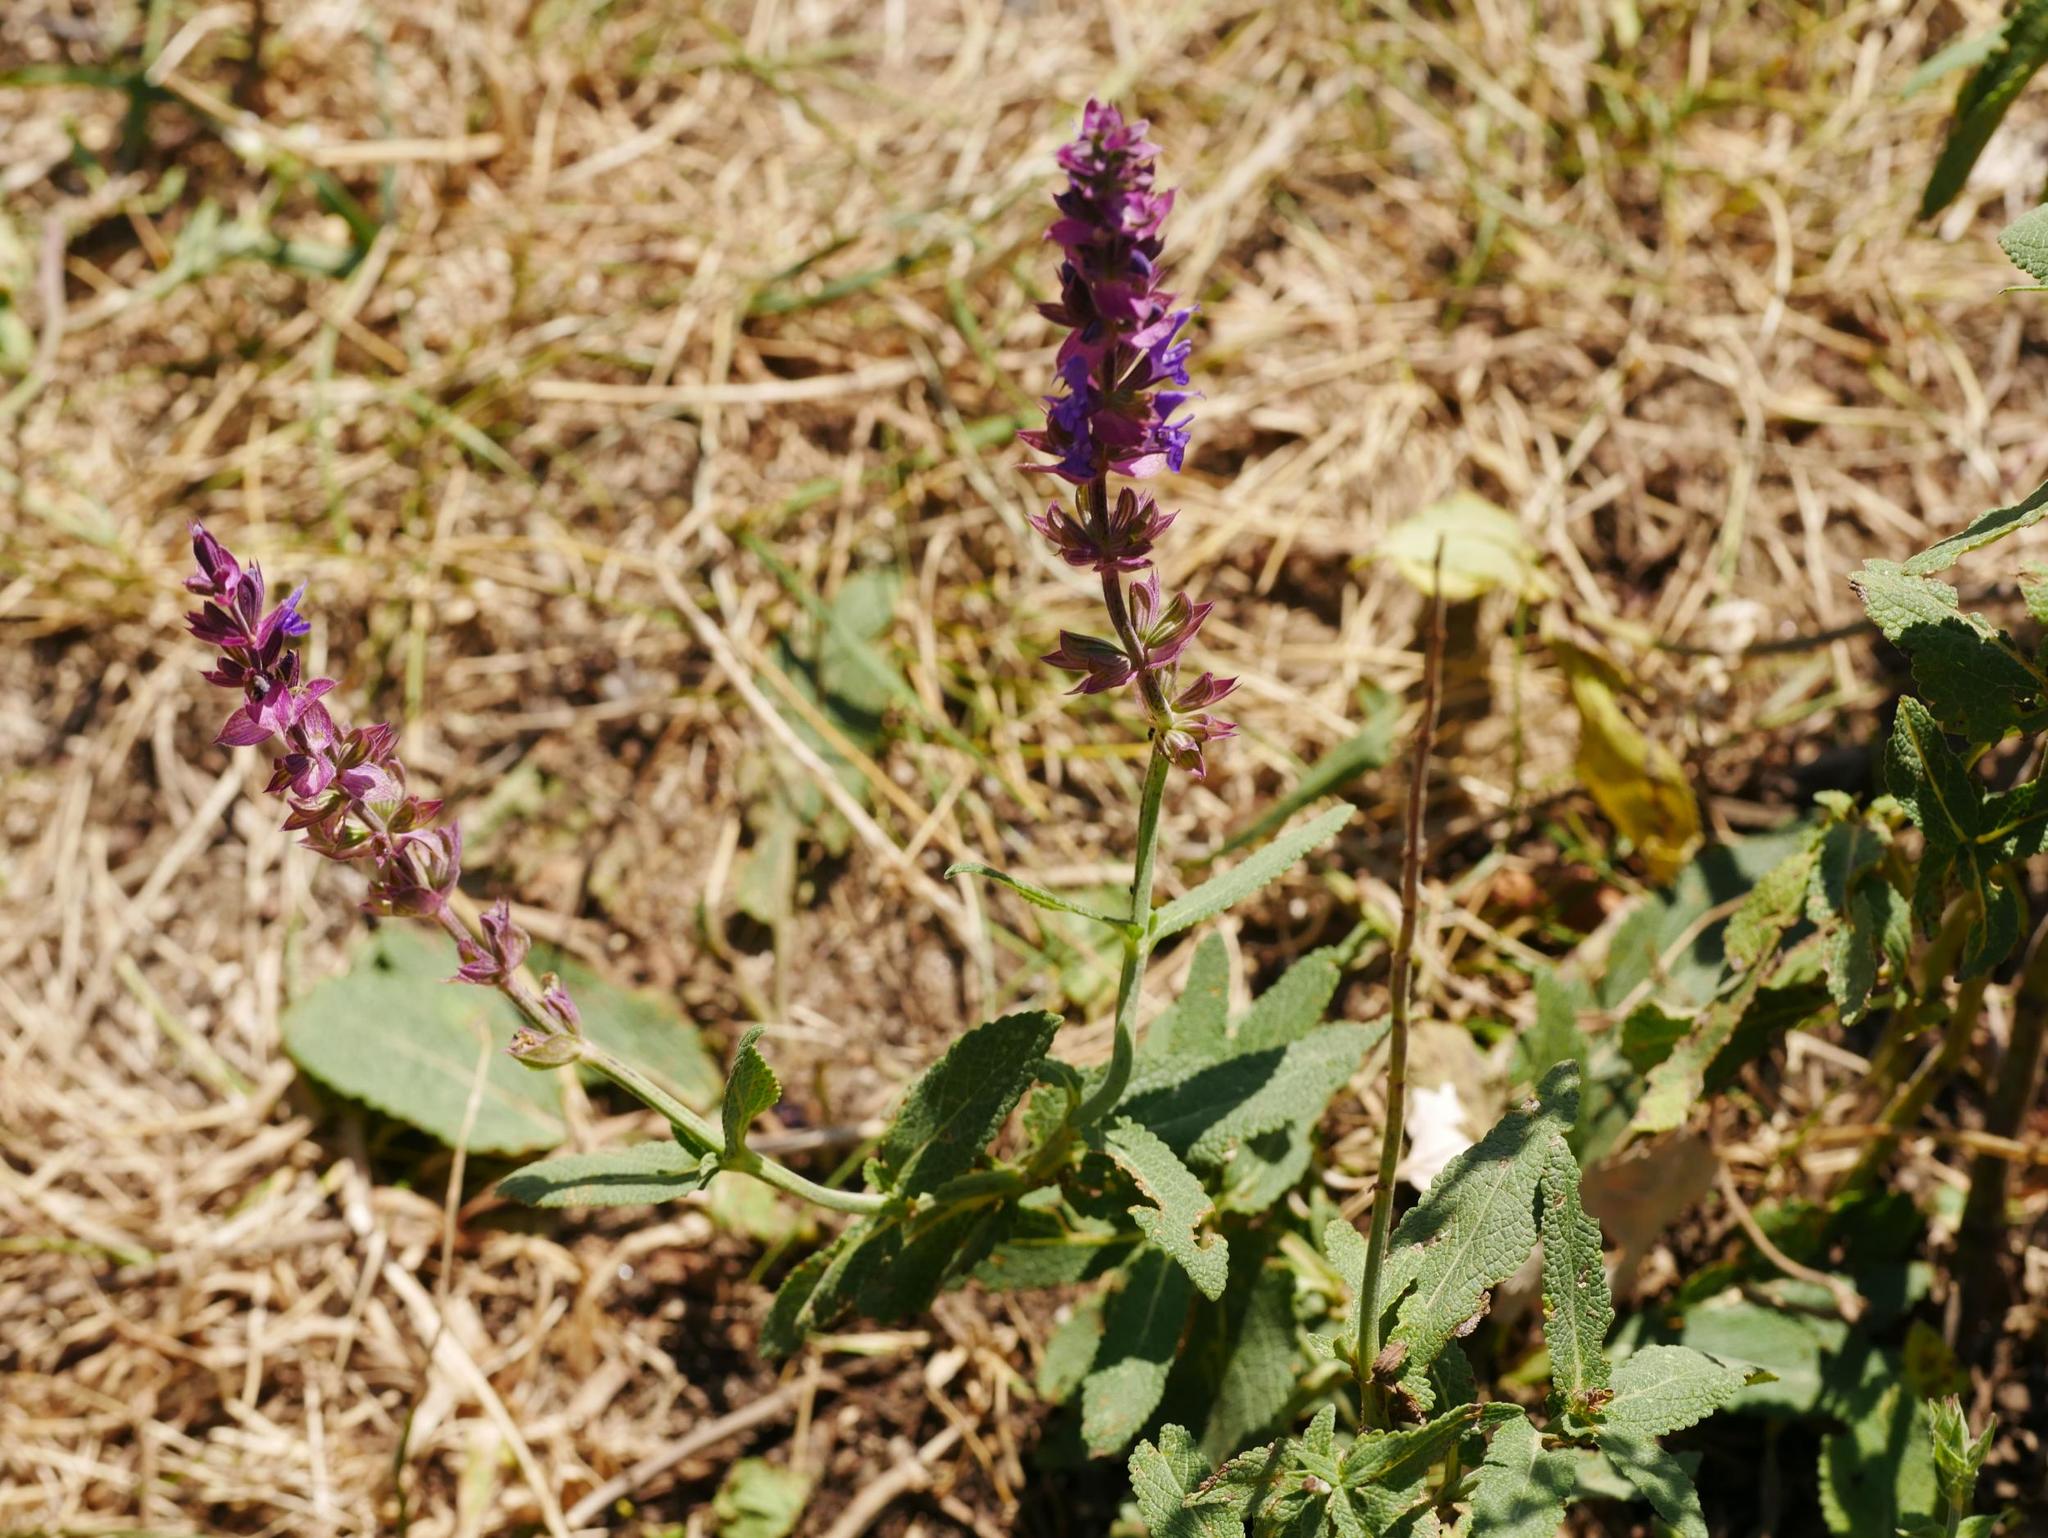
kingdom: Plantae
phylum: Tracheophyta
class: Magnoliopsida
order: Lamiales
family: Lamiaceae
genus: Salvia
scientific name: Salvia nemorosa
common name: Balkan clary
